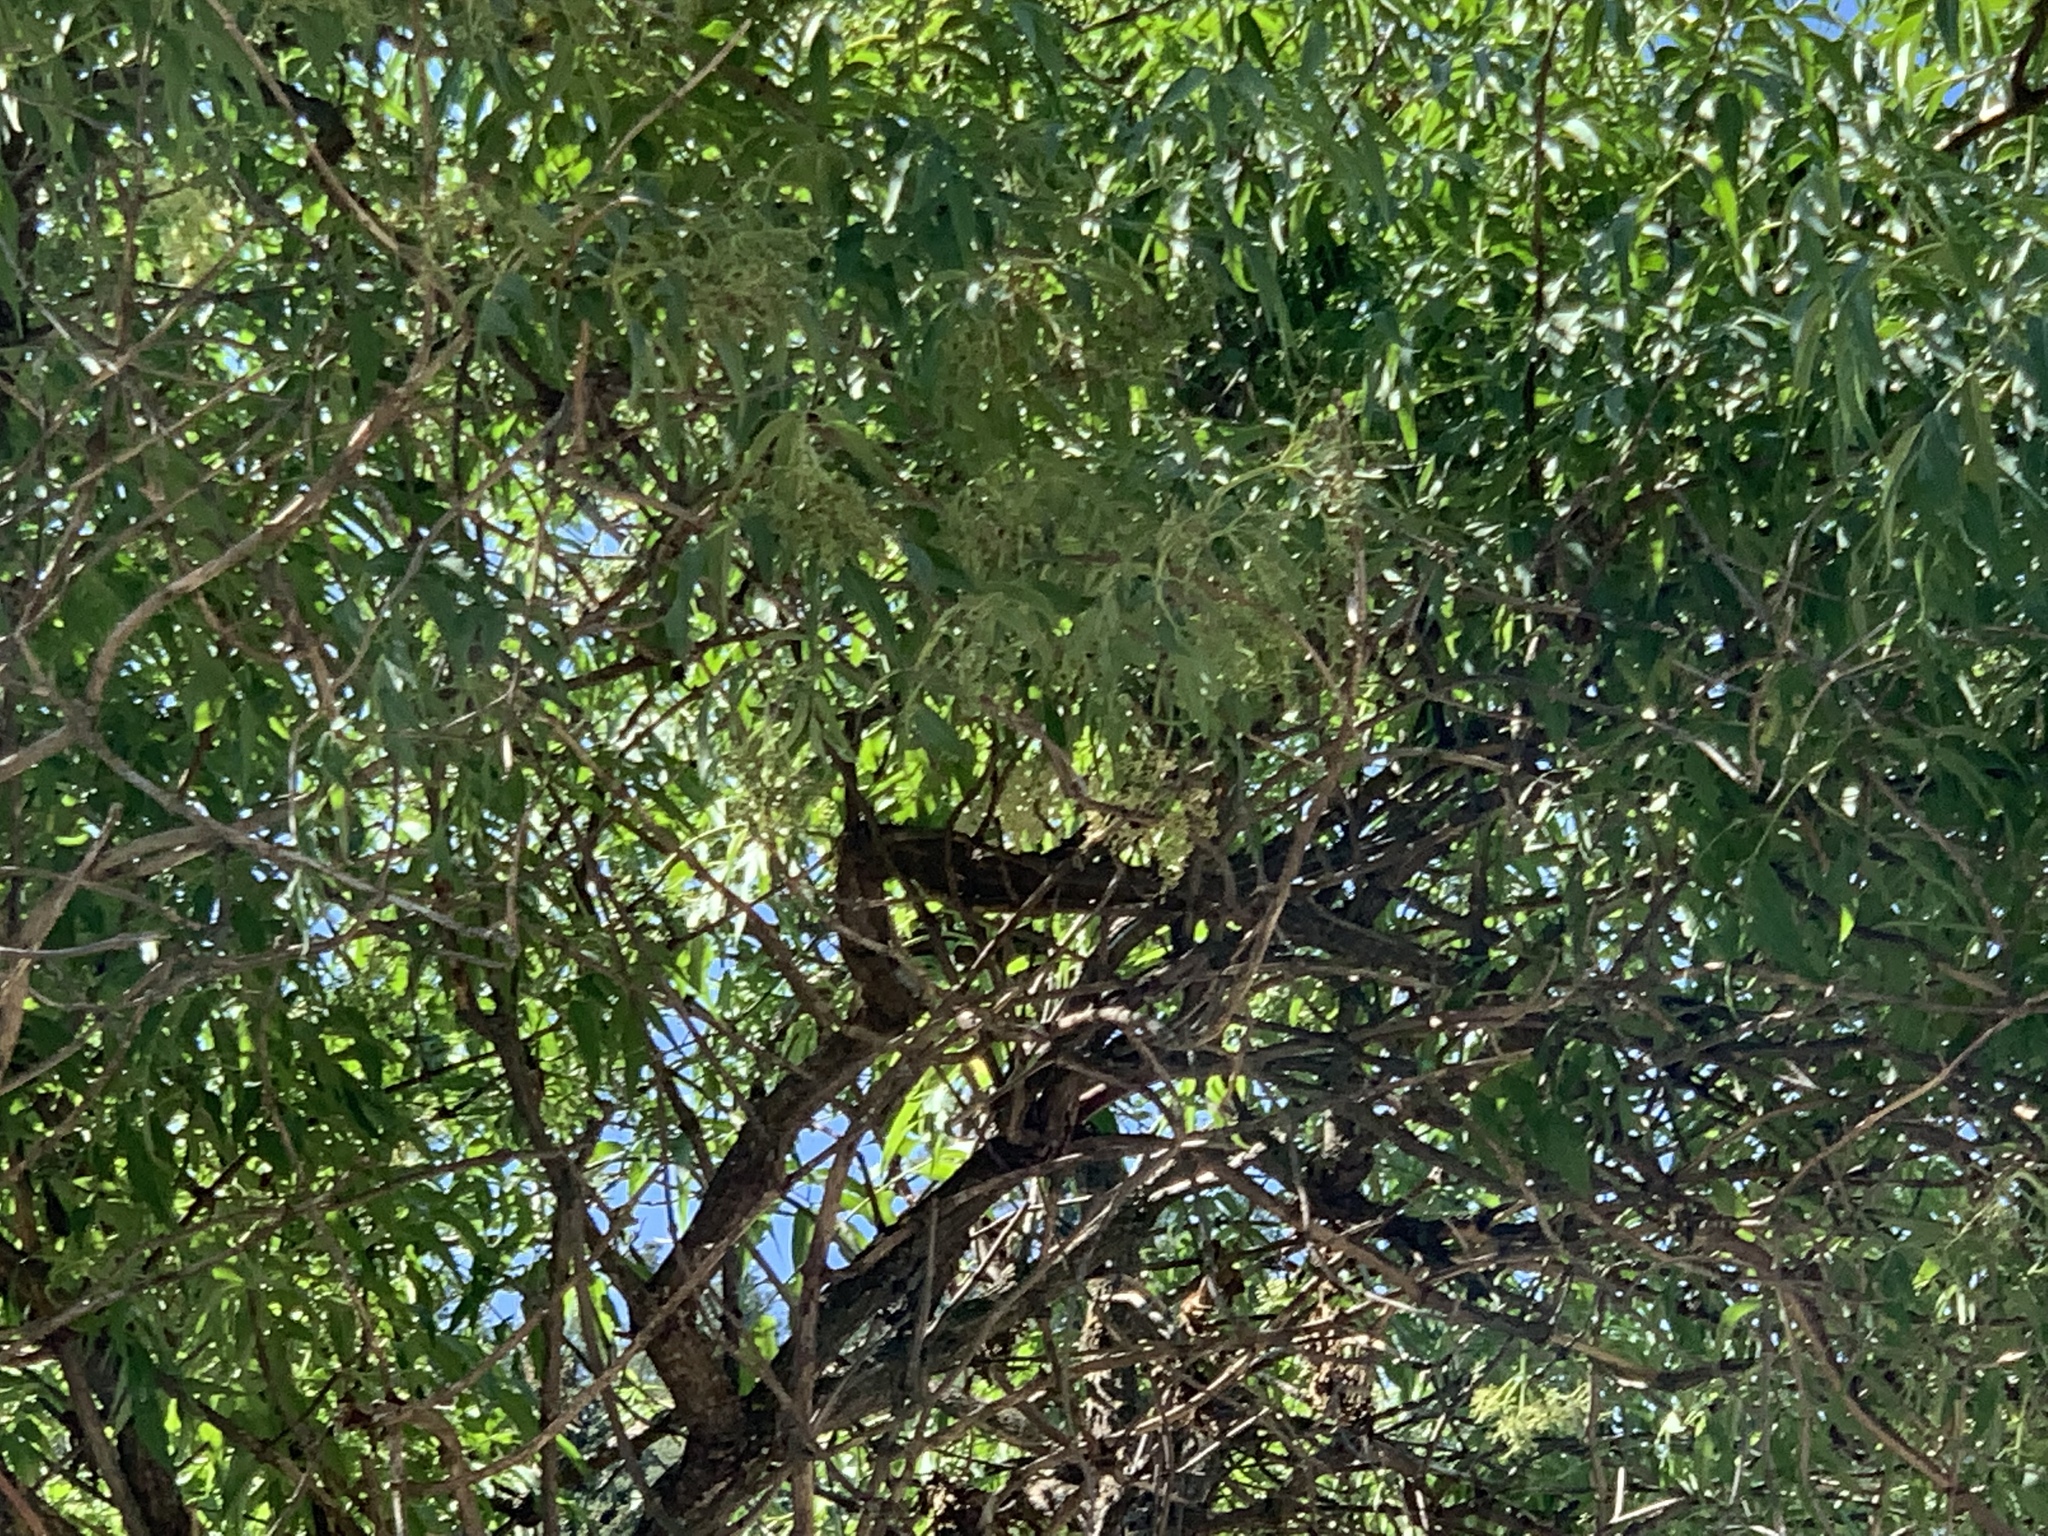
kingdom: Plantae
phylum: Tracheophyta
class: Magnoliopsida
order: Dipsacales
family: Viburnaceae
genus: Sambucus
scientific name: Sambucus cerulea
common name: Blue elder
